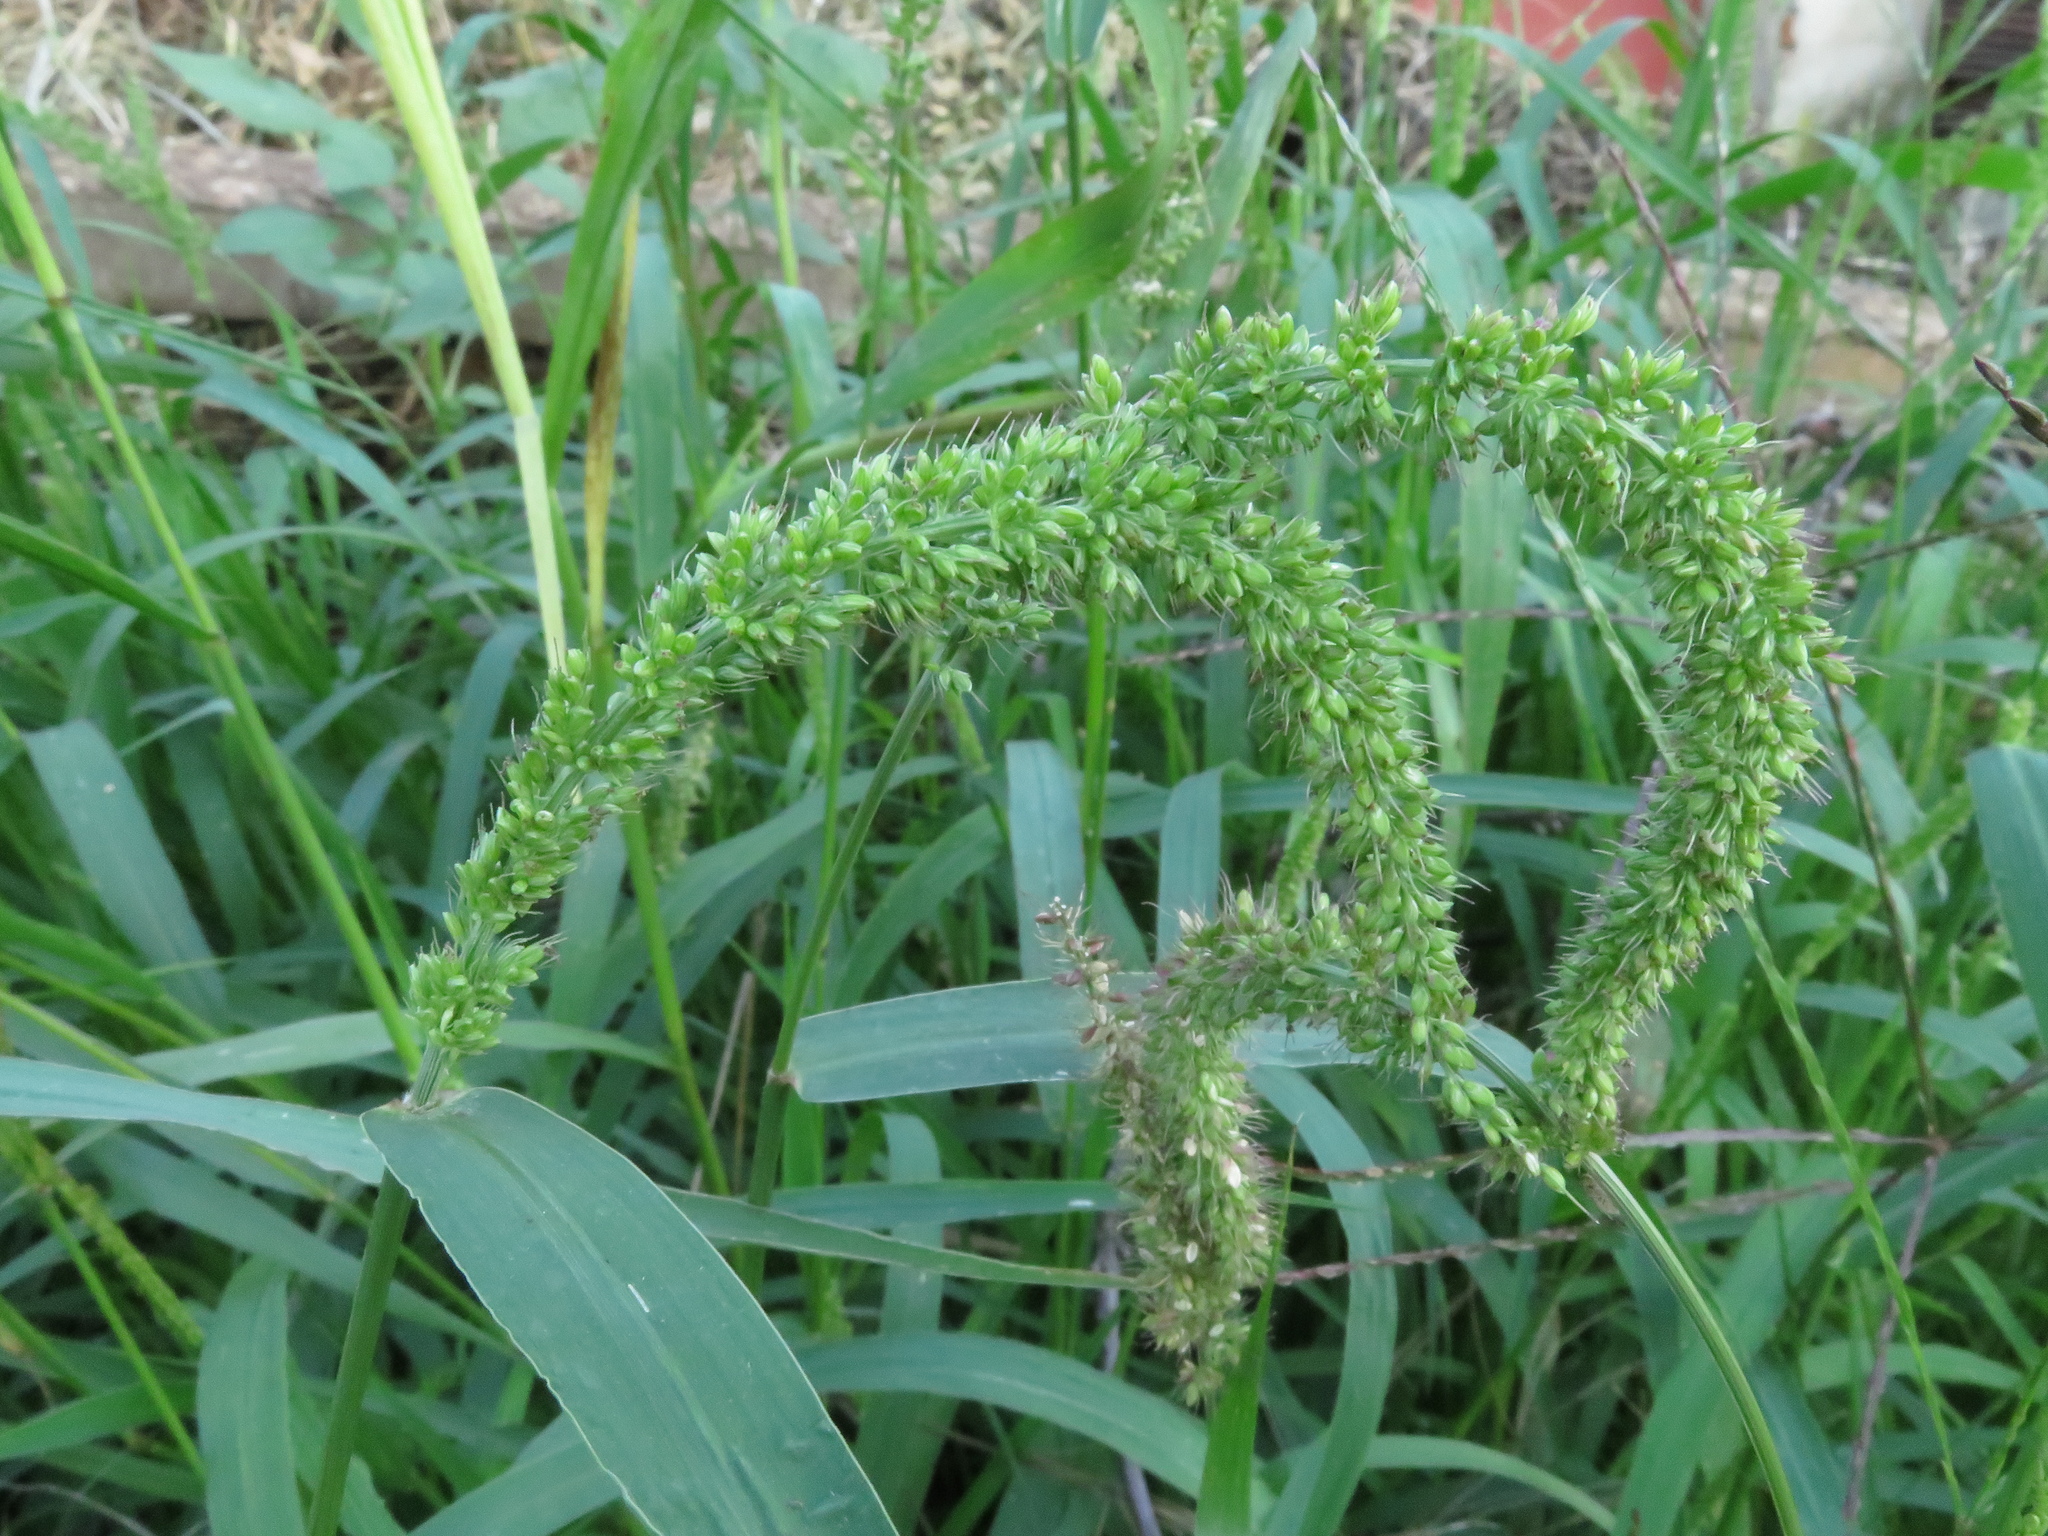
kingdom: Plantae
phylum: Tracheophyta
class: Liliopsida
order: Poales
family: Poaceae
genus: Setaria
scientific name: Setaria verticillata
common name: Hooked bristlegrass
